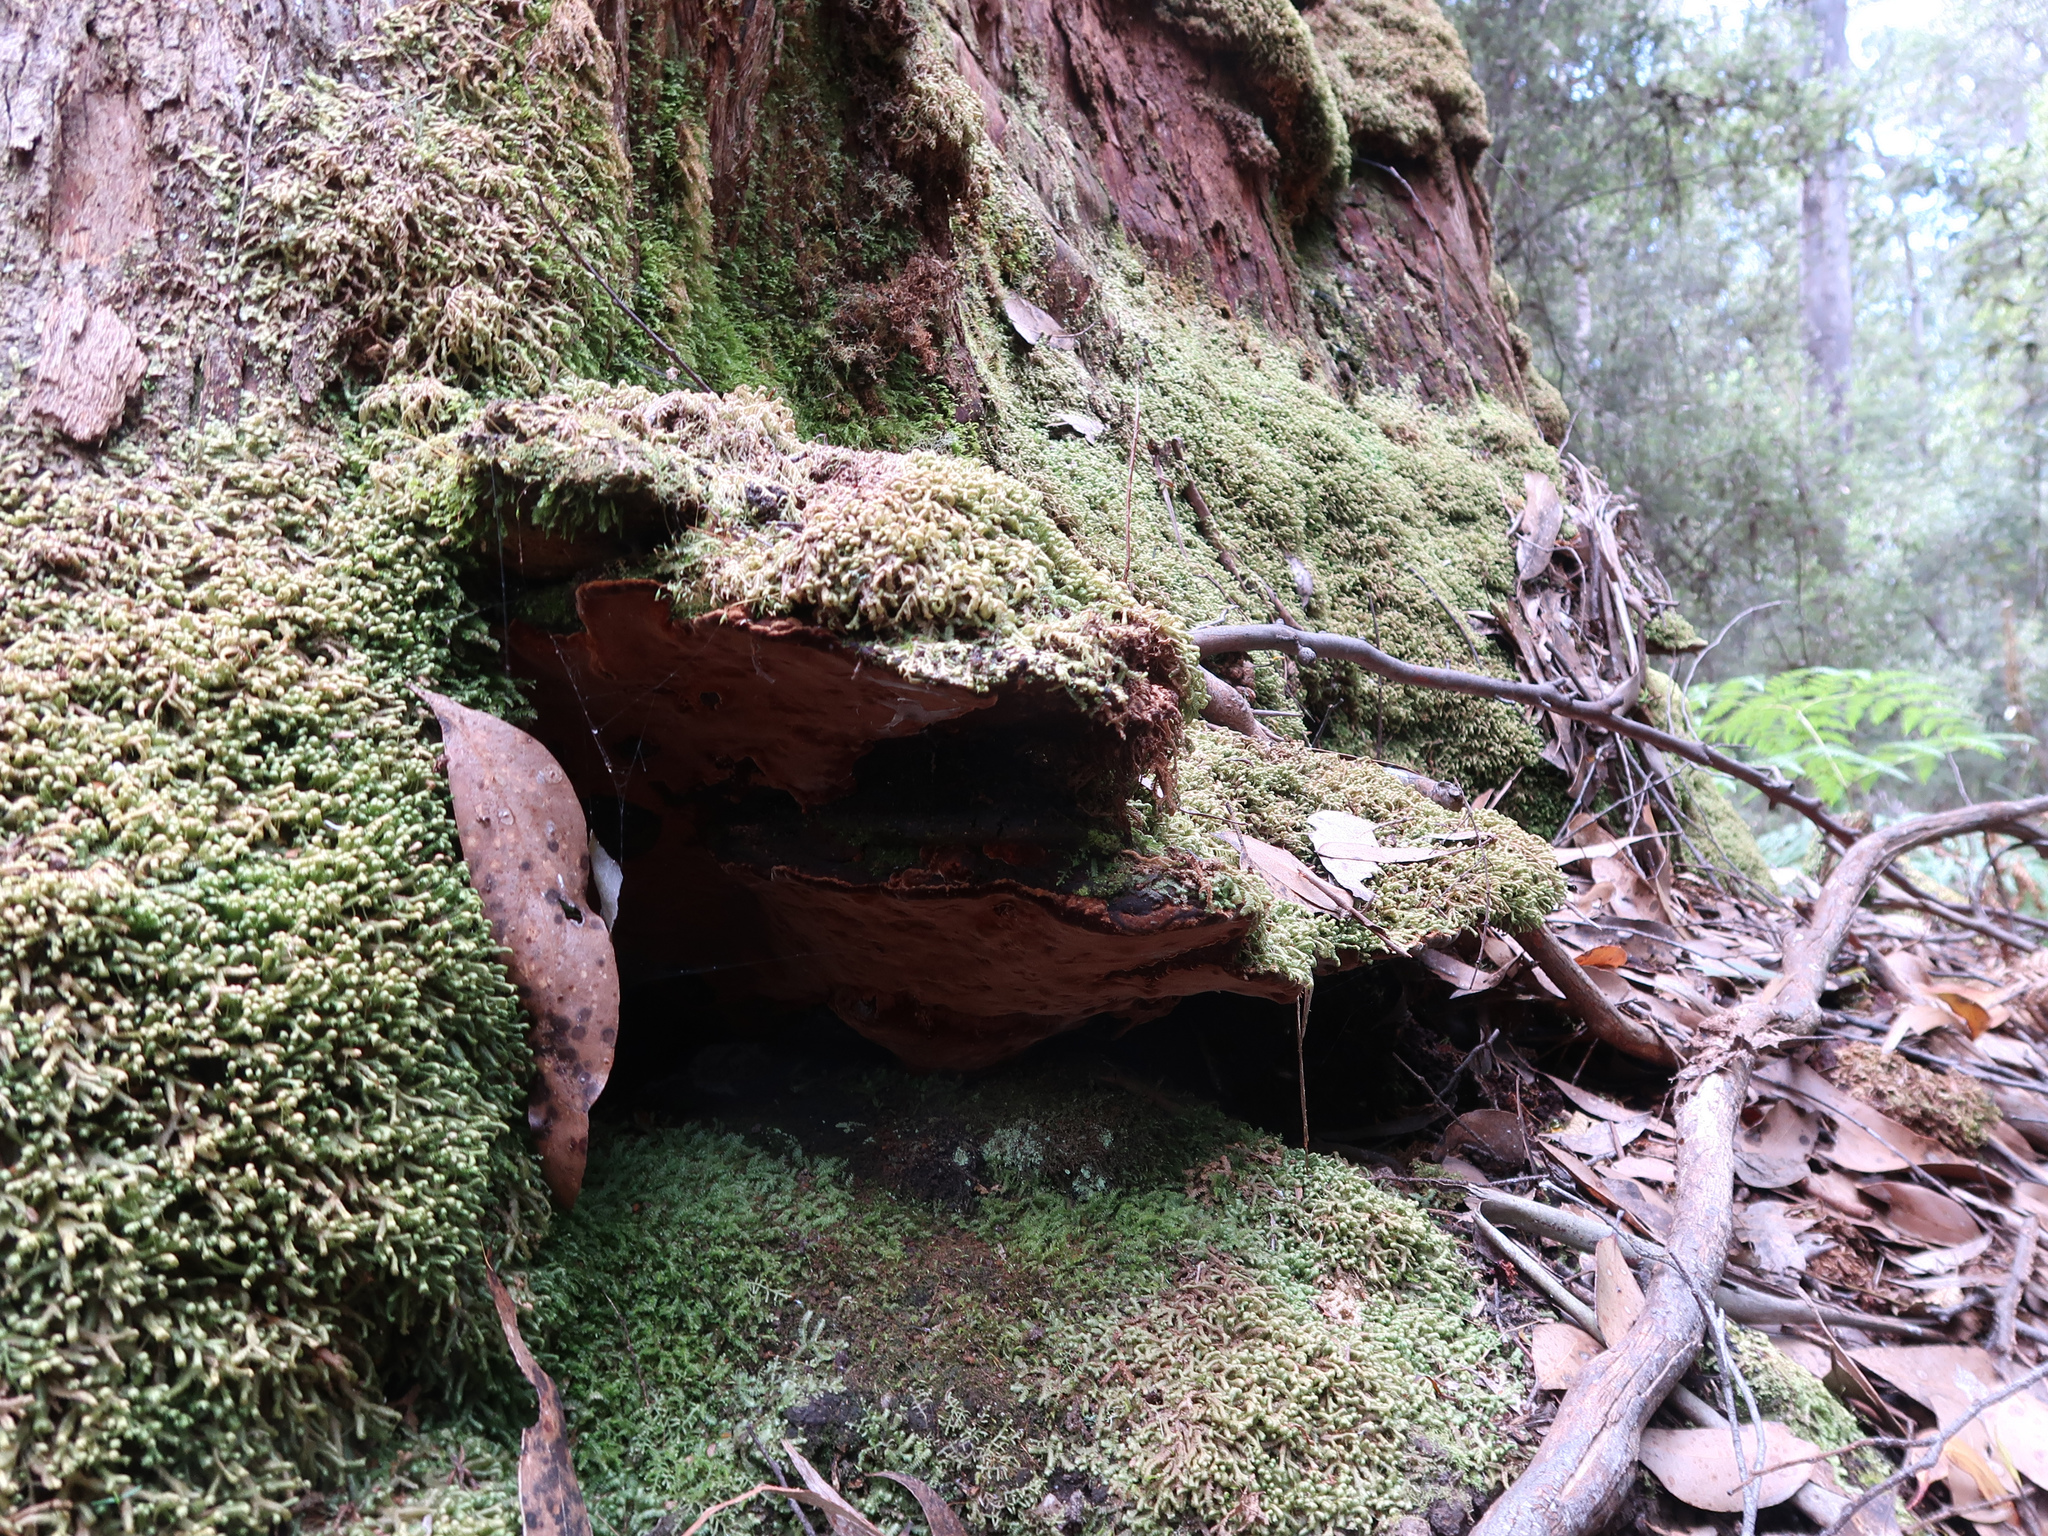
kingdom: Fungi
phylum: Basidiomycota
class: Agaricomycetes
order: Hymenochaetales
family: Hymenochaetaceae
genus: Fuscoporia
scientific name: Fuscoporia wahlbergii
